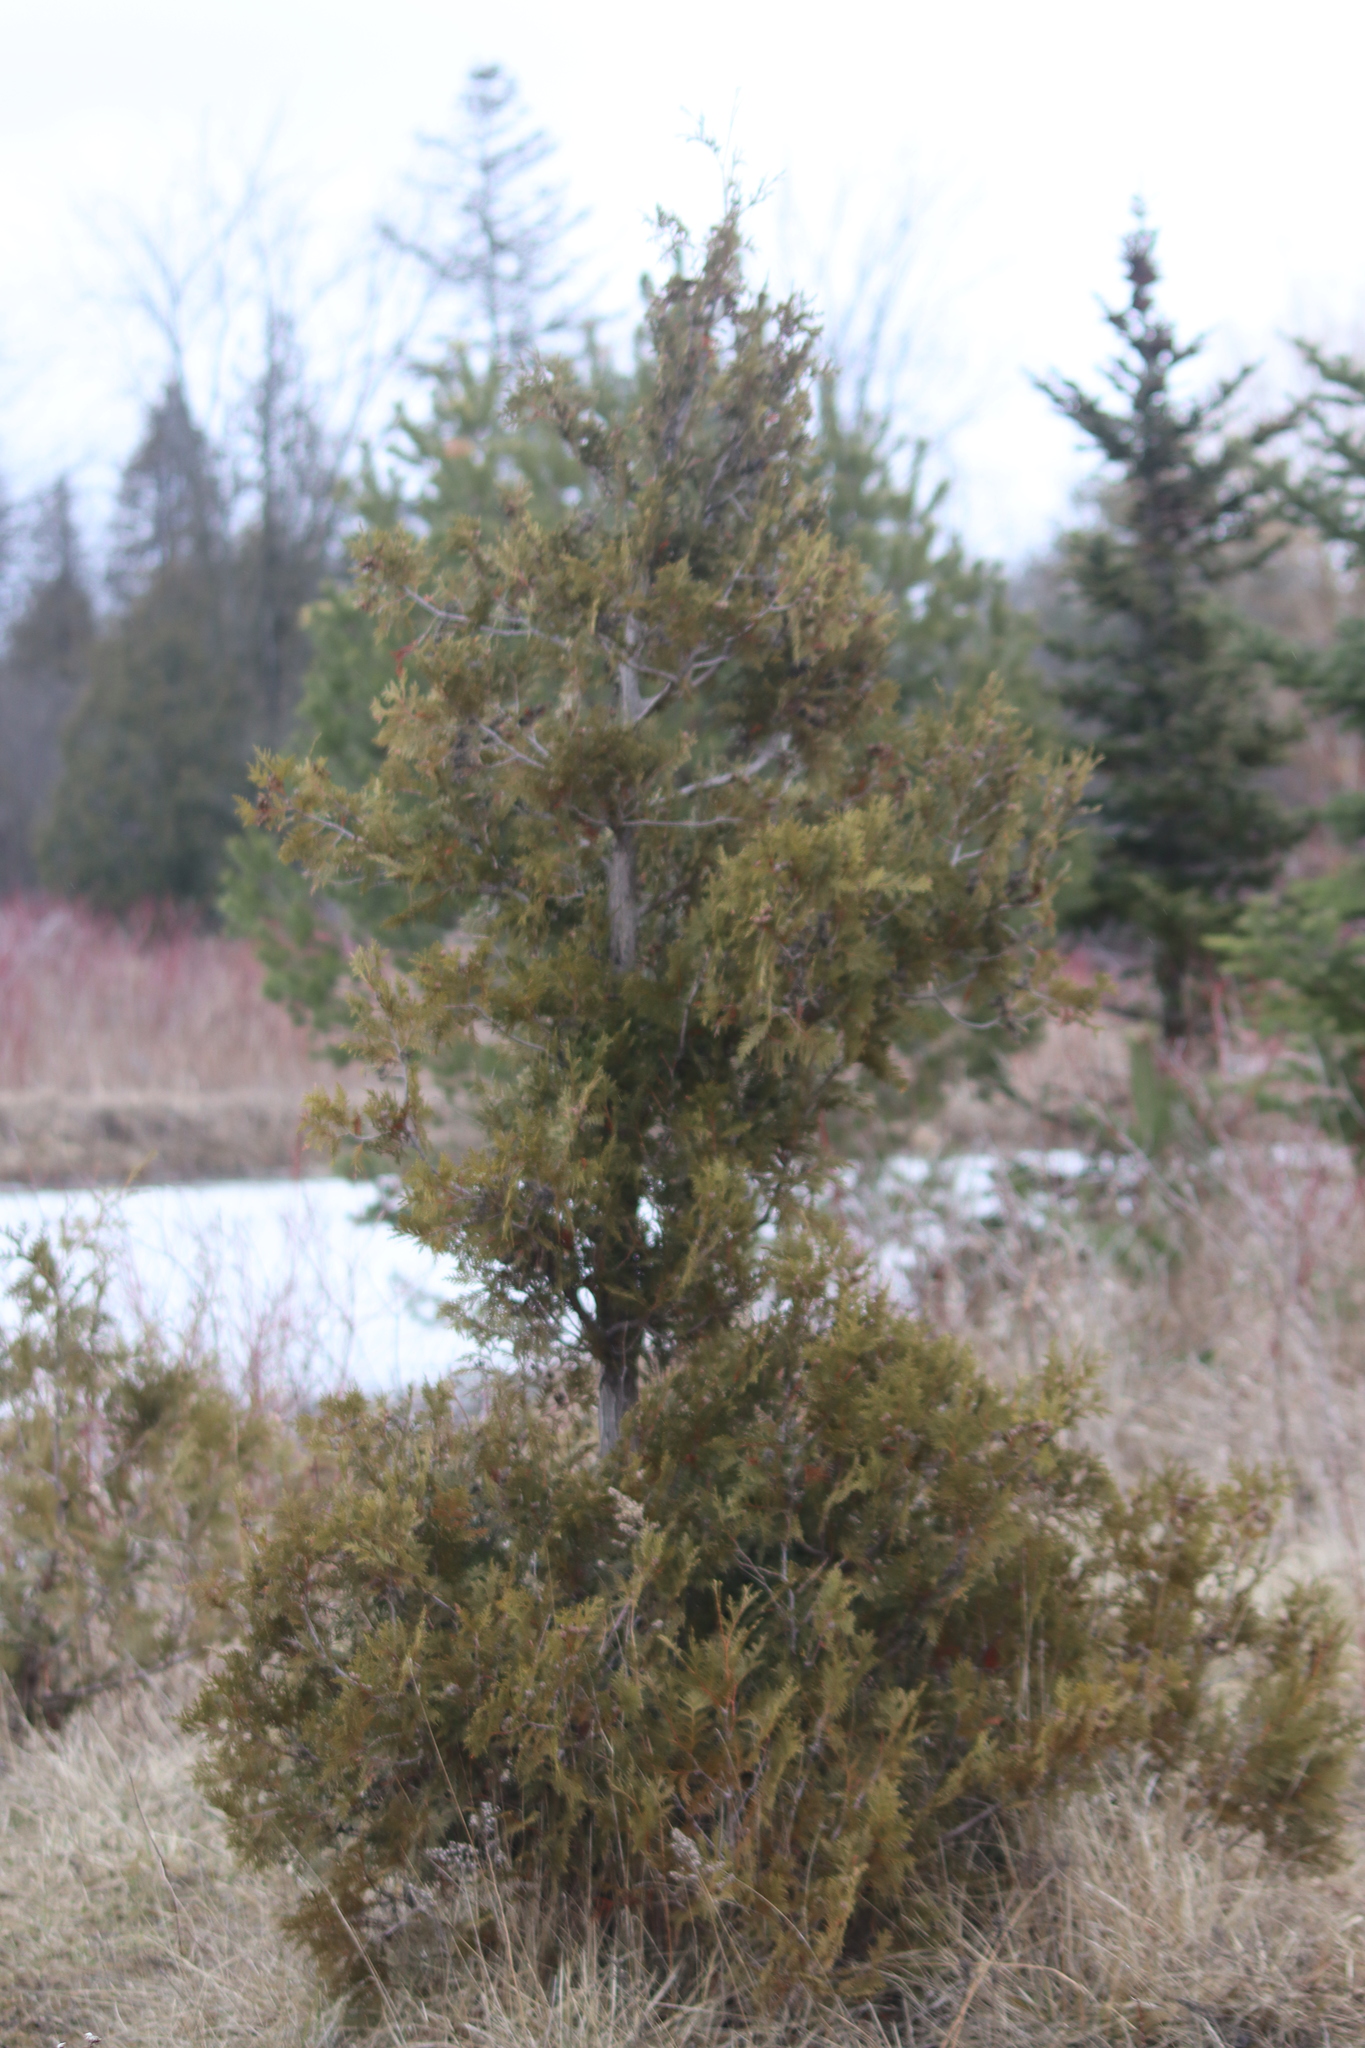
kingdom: Plantae
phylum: Tracheophyta
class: Pinopsida
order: Pinales
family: Cupressaceae
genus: Thuja
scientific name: Thuja occidentalis
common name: Northern white-cedar
